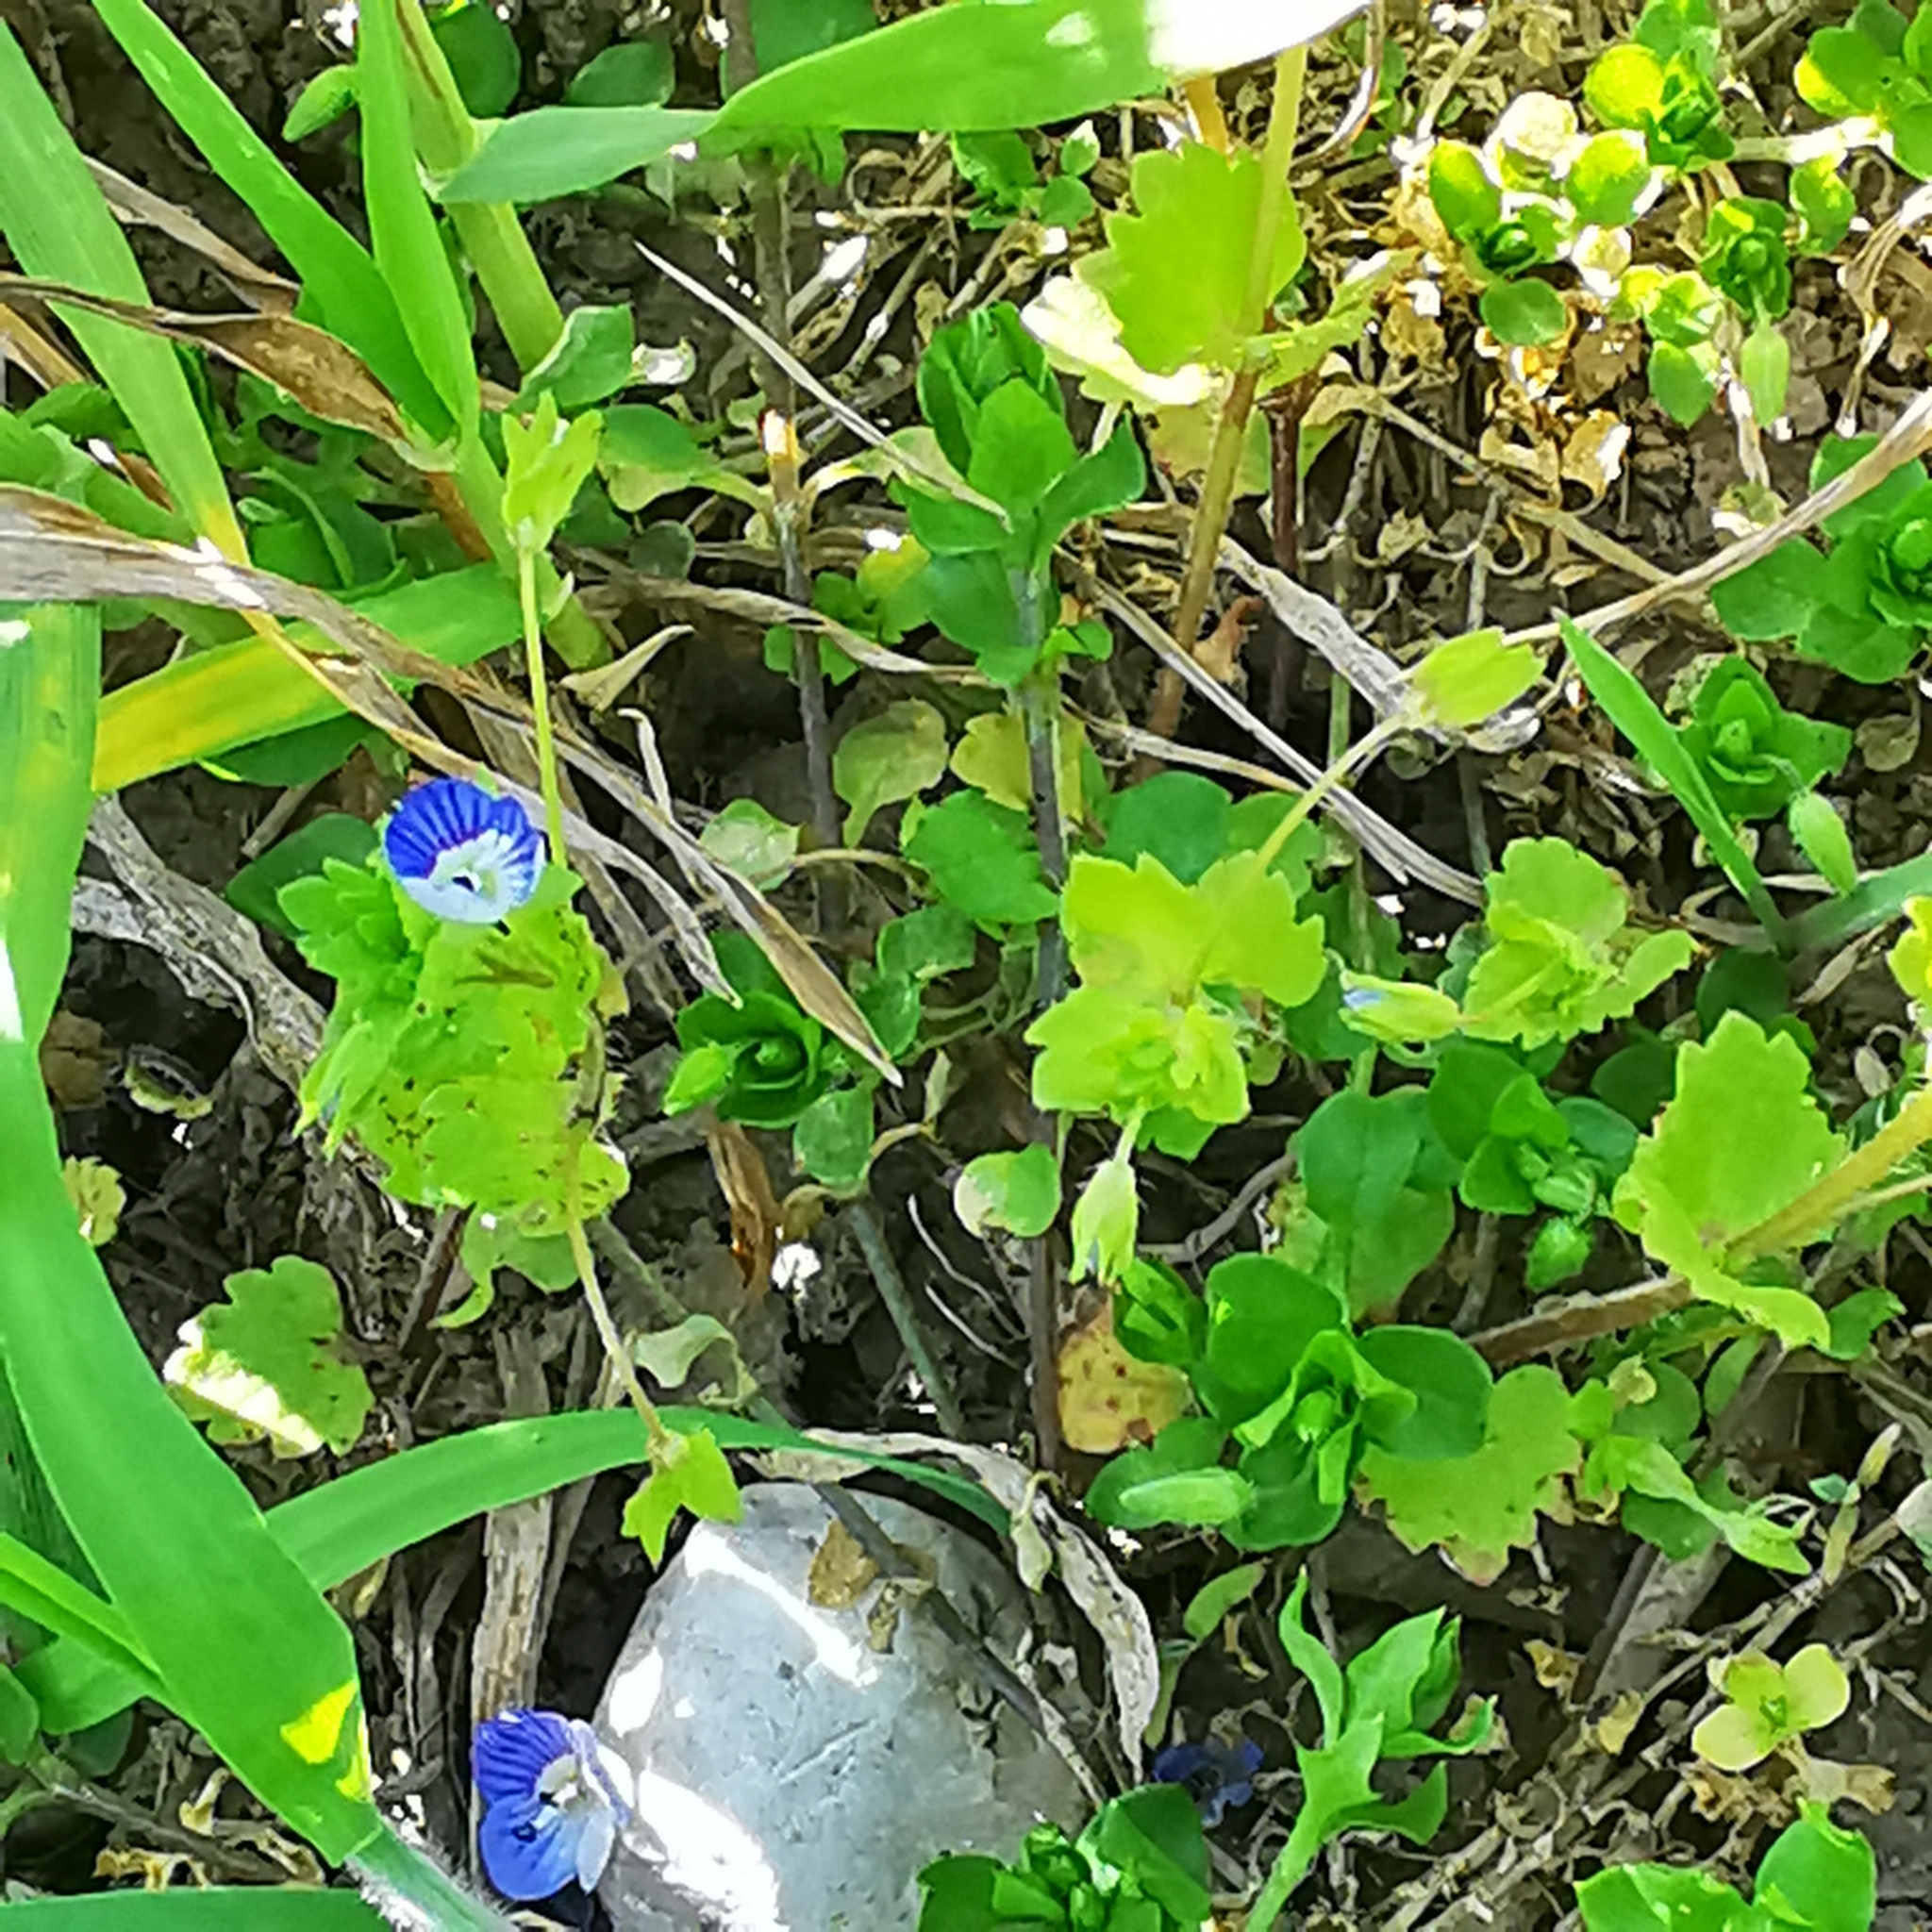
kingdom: Plantae
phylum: Tracheophyta
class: Magnoliopsida
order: Lamiales
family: Plantaginaceae
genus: Veronica
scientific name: Veronica persica
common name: Common field-speedwell
